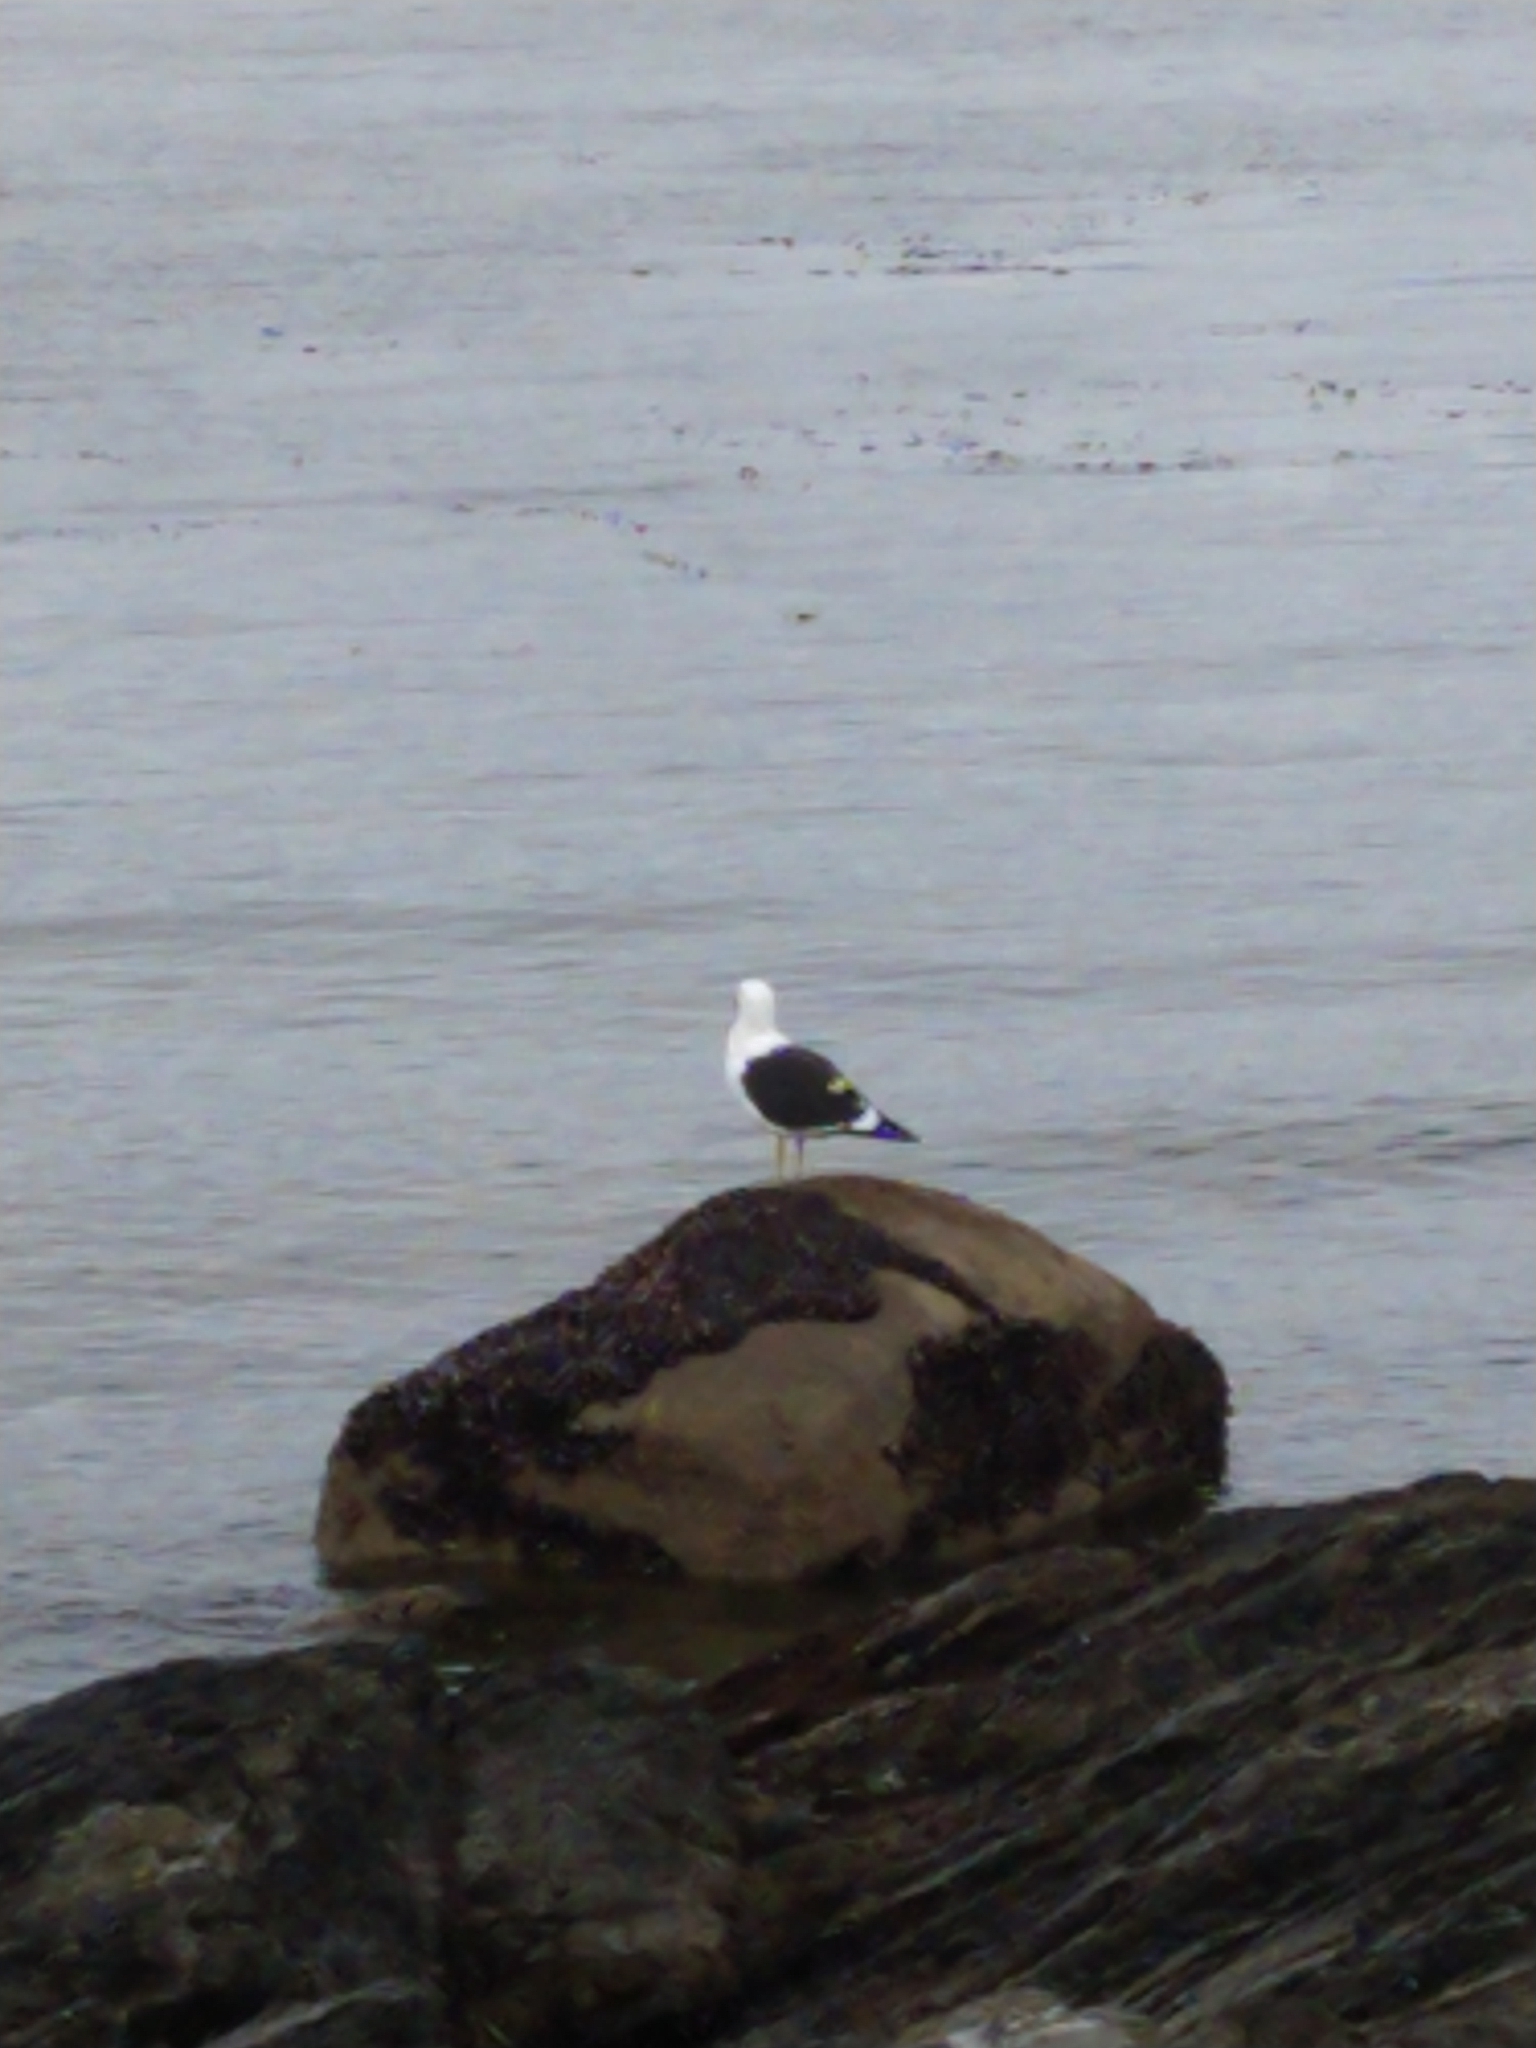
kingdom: Animalia
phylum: Chordata
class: Aves
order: Charadriiformes
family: Laridae
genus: Larus
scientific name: Larus dominicanus
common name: Kelp gull
